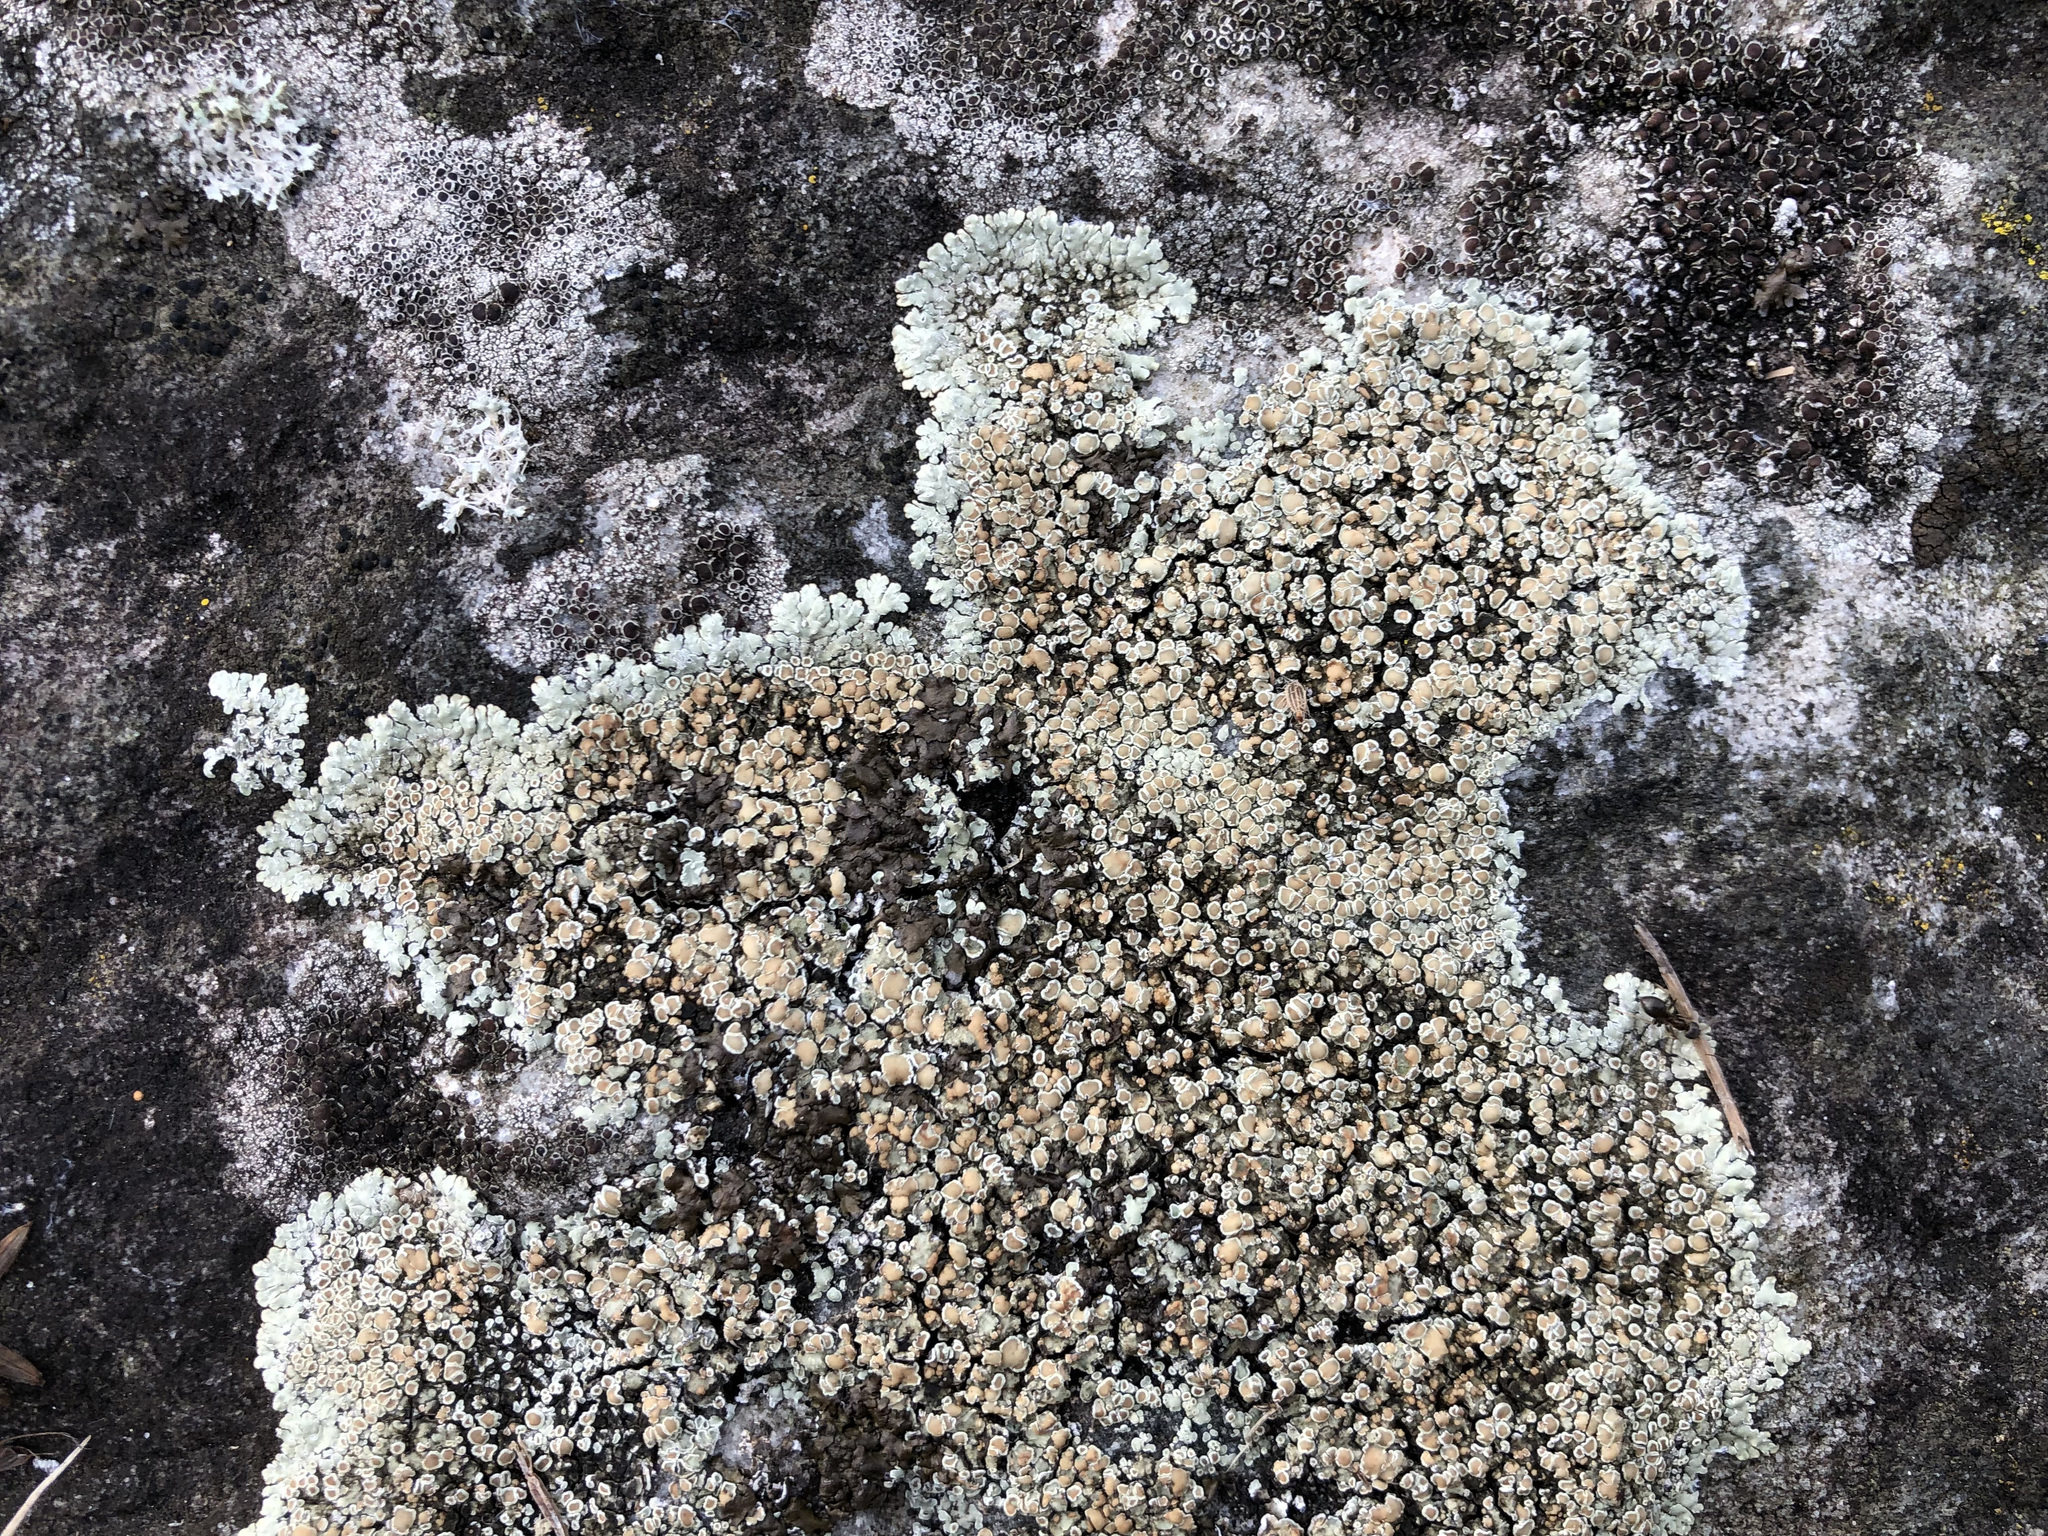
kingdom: Fungi
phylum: Ascomycota
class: Lecanoromycetes
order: Lecanorales
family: Lecanoraceae
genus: Protoparmeliopsis
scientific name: Protoparmeliopsis muralis
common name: Stonewall rim lichen
